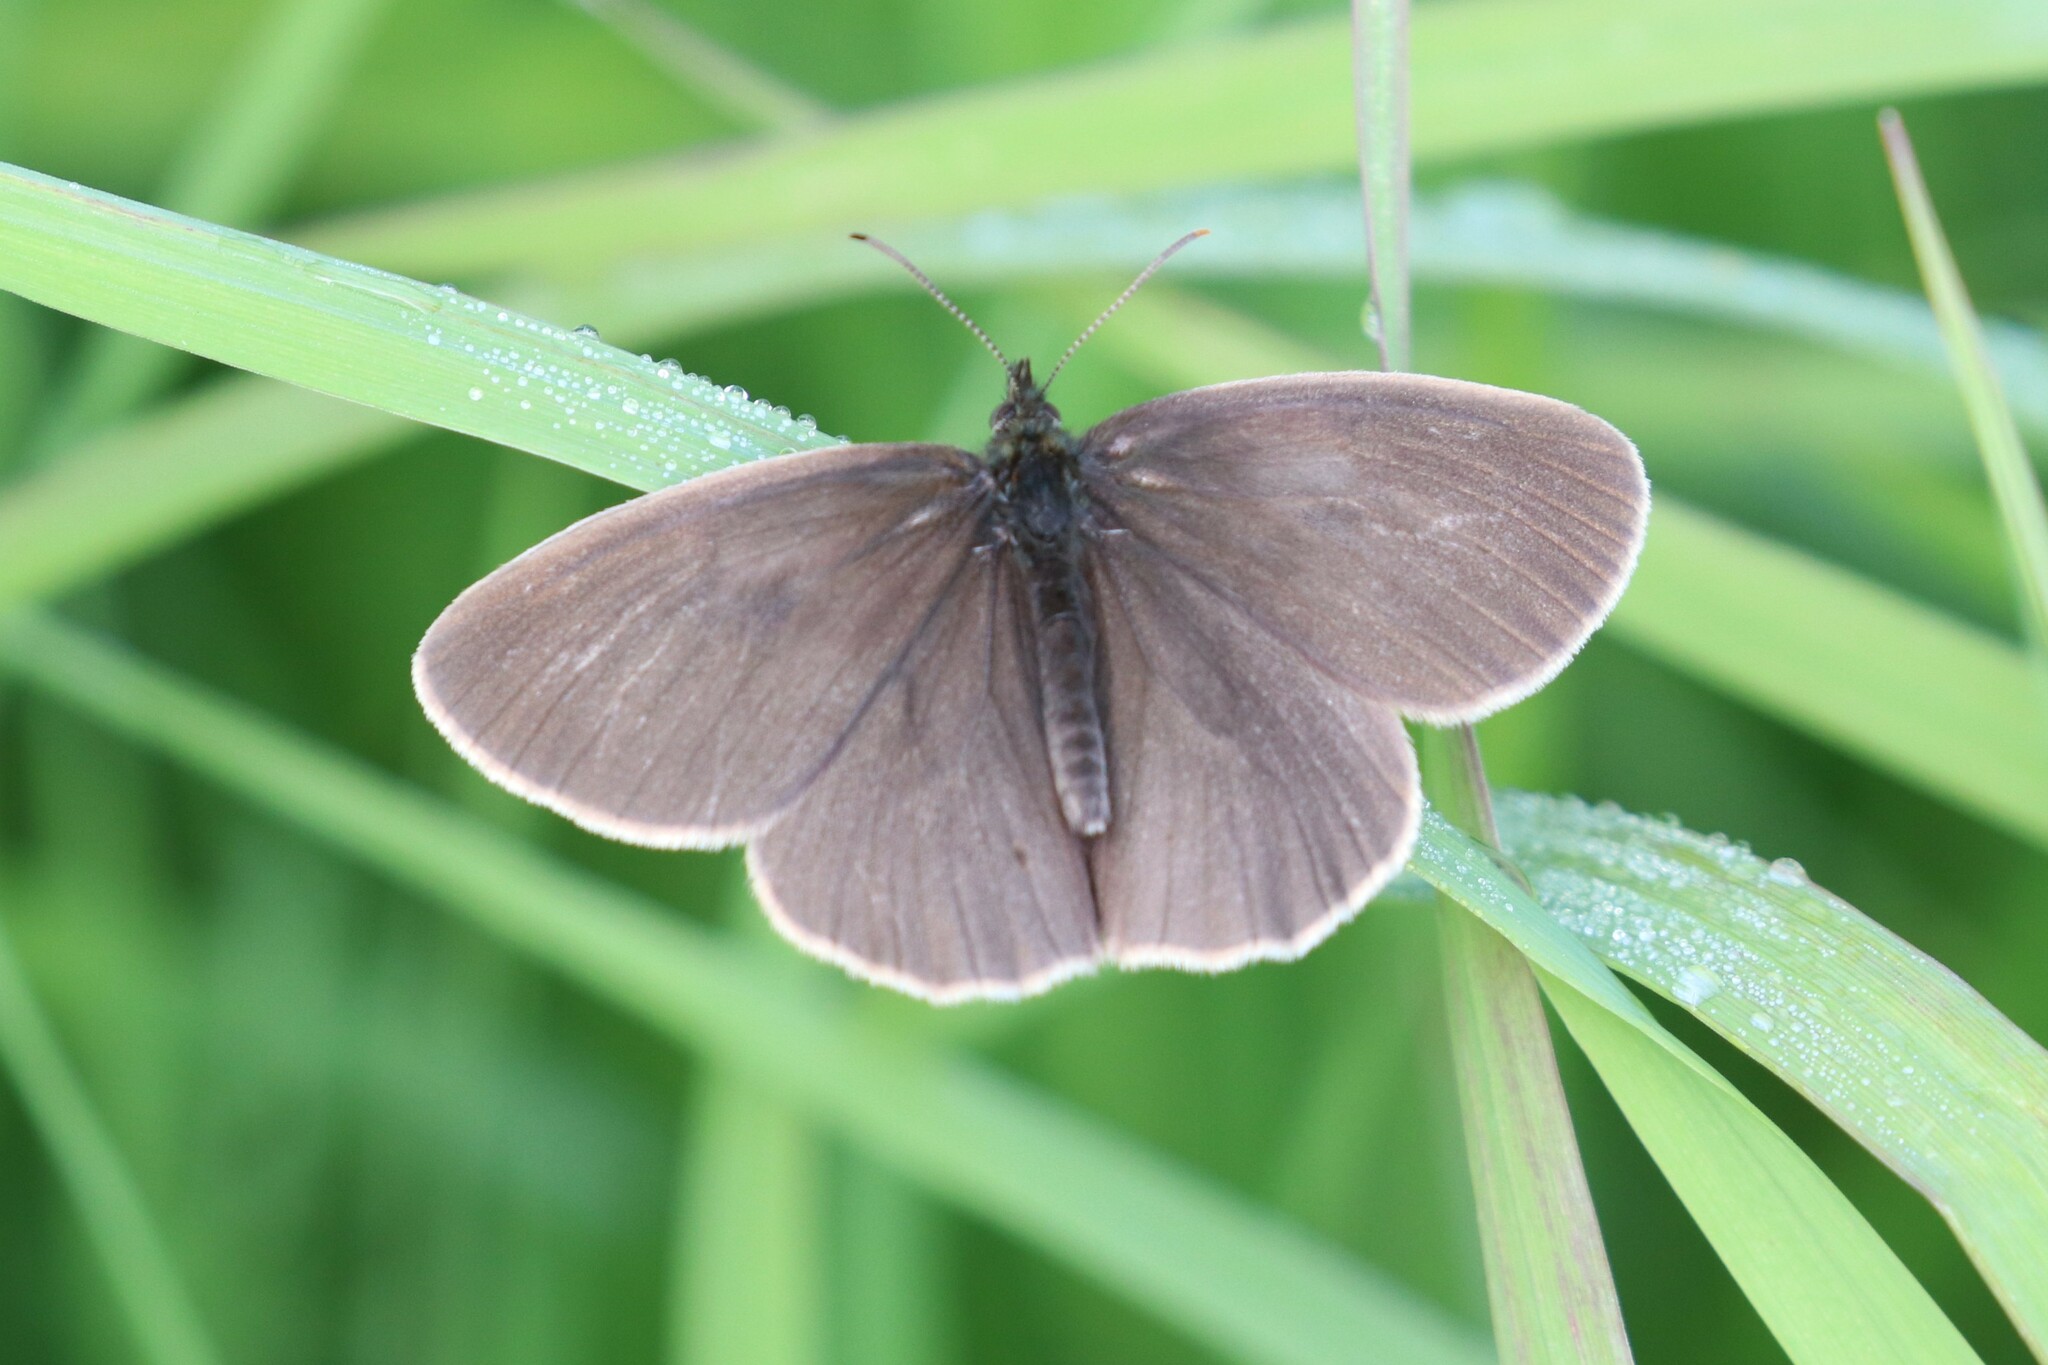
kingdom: Animalia
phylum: Arthropoda
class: Insecta
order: Lepidoptera
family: Nymphalidae
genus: Aphantopus
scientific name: Aphantopus hyperantus
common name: Ringlet
